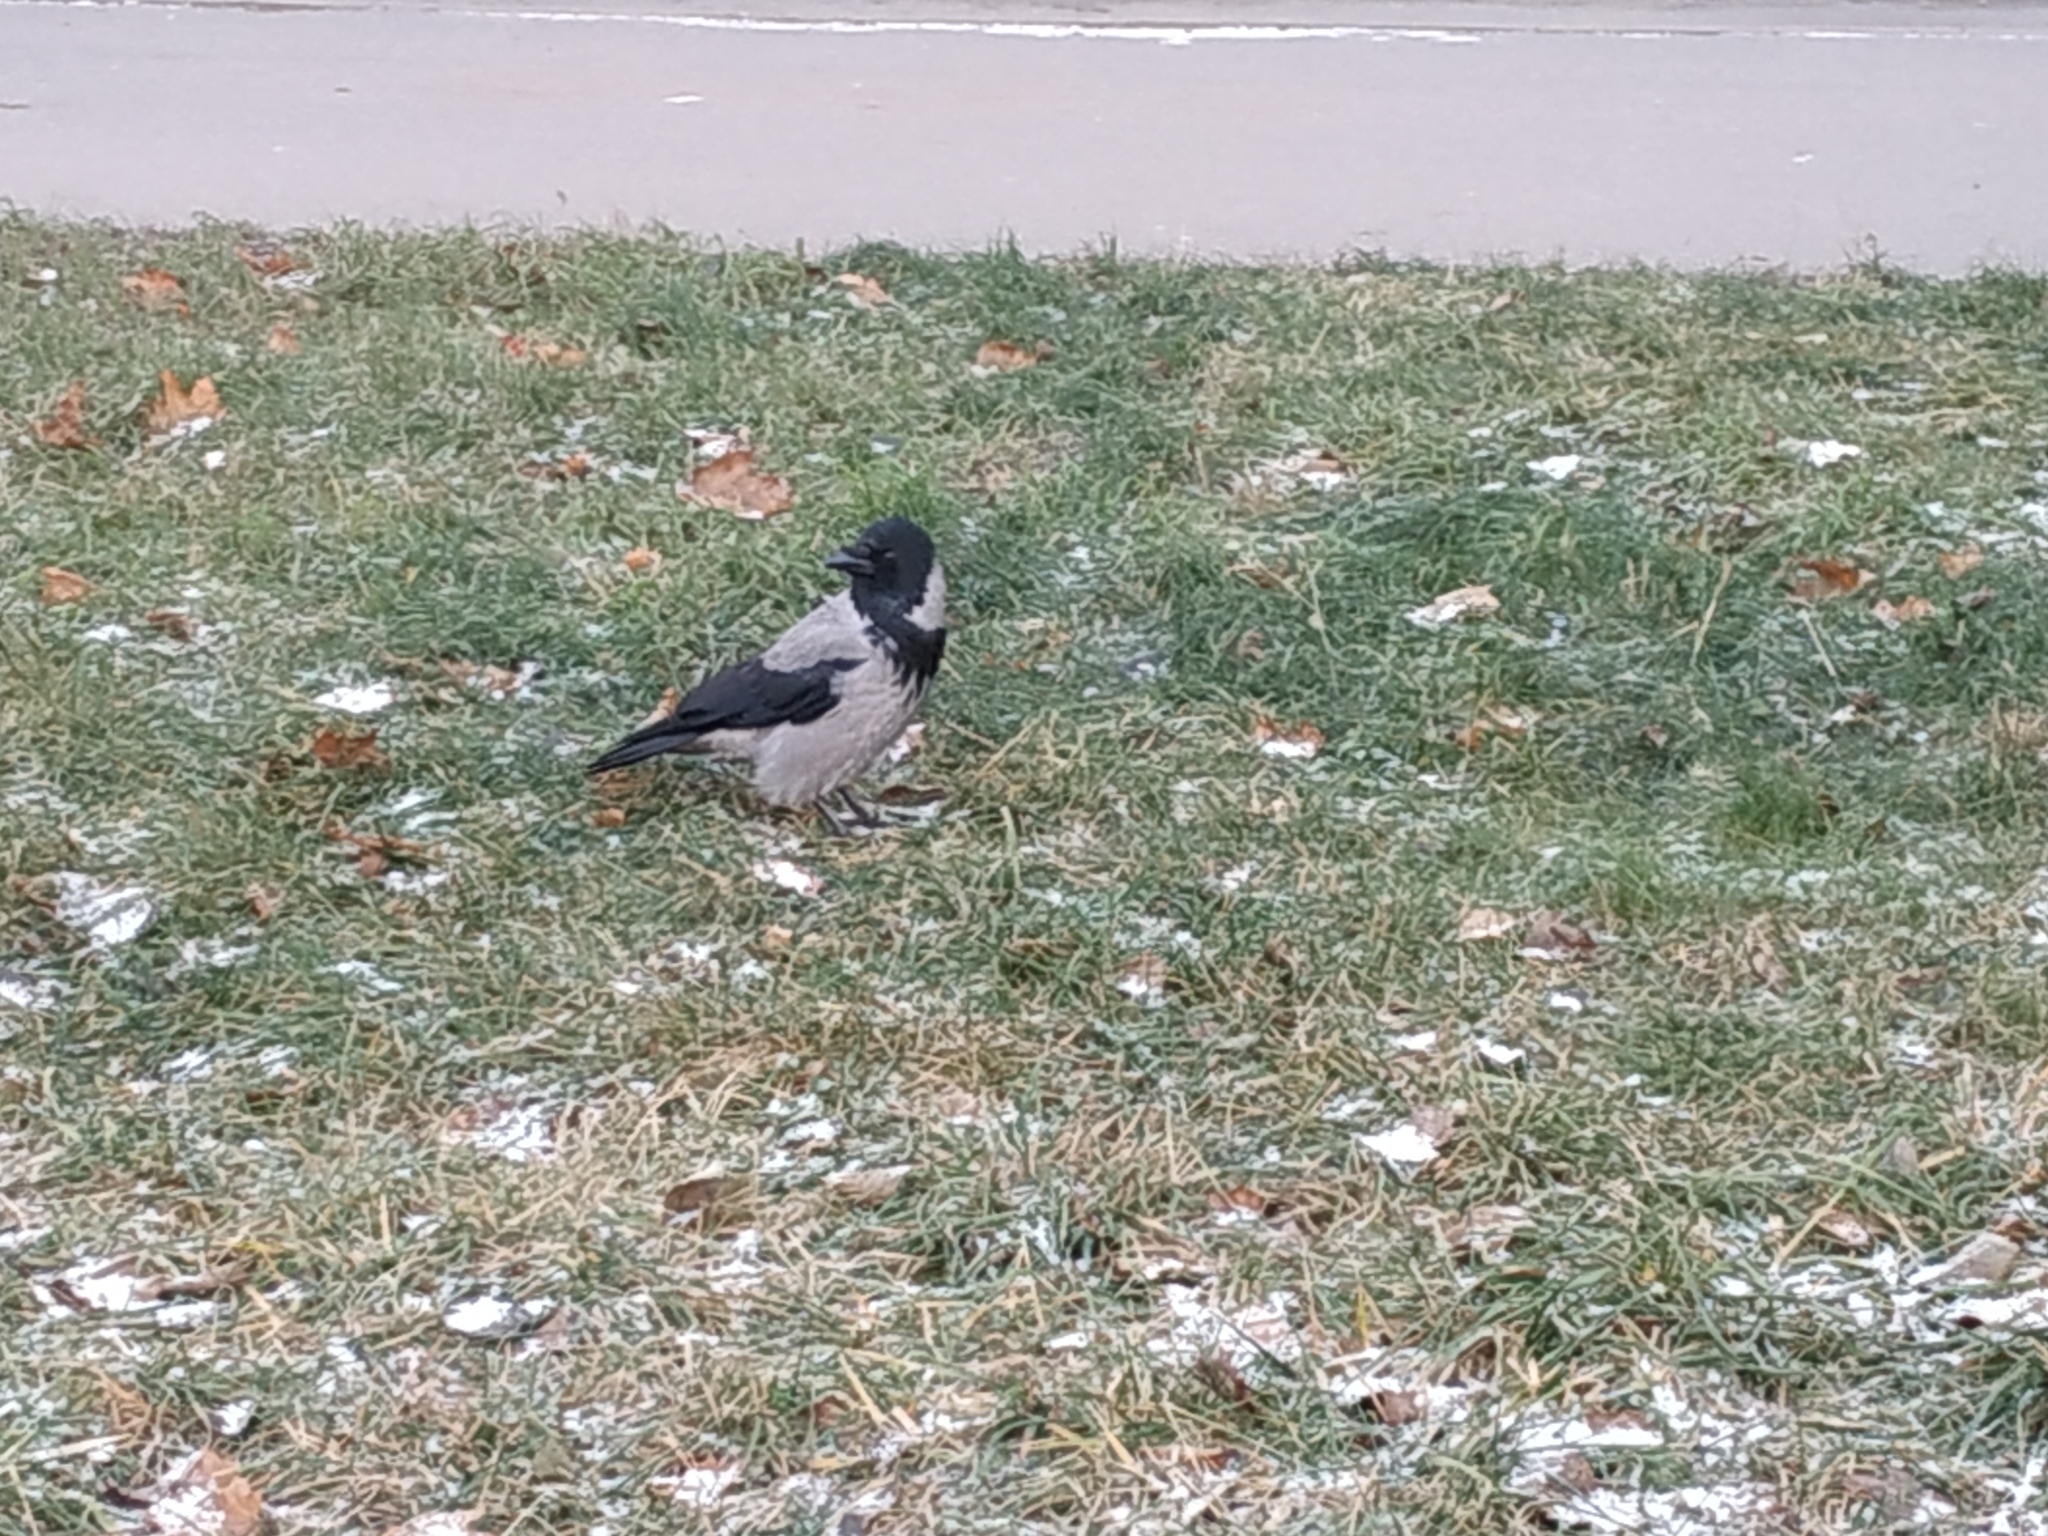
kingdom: Animalia
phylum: Chordata
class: Aves
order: Passeriformes
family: Corvidae
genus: Corvus
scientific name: Corvus cornix
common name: Hooded crow
